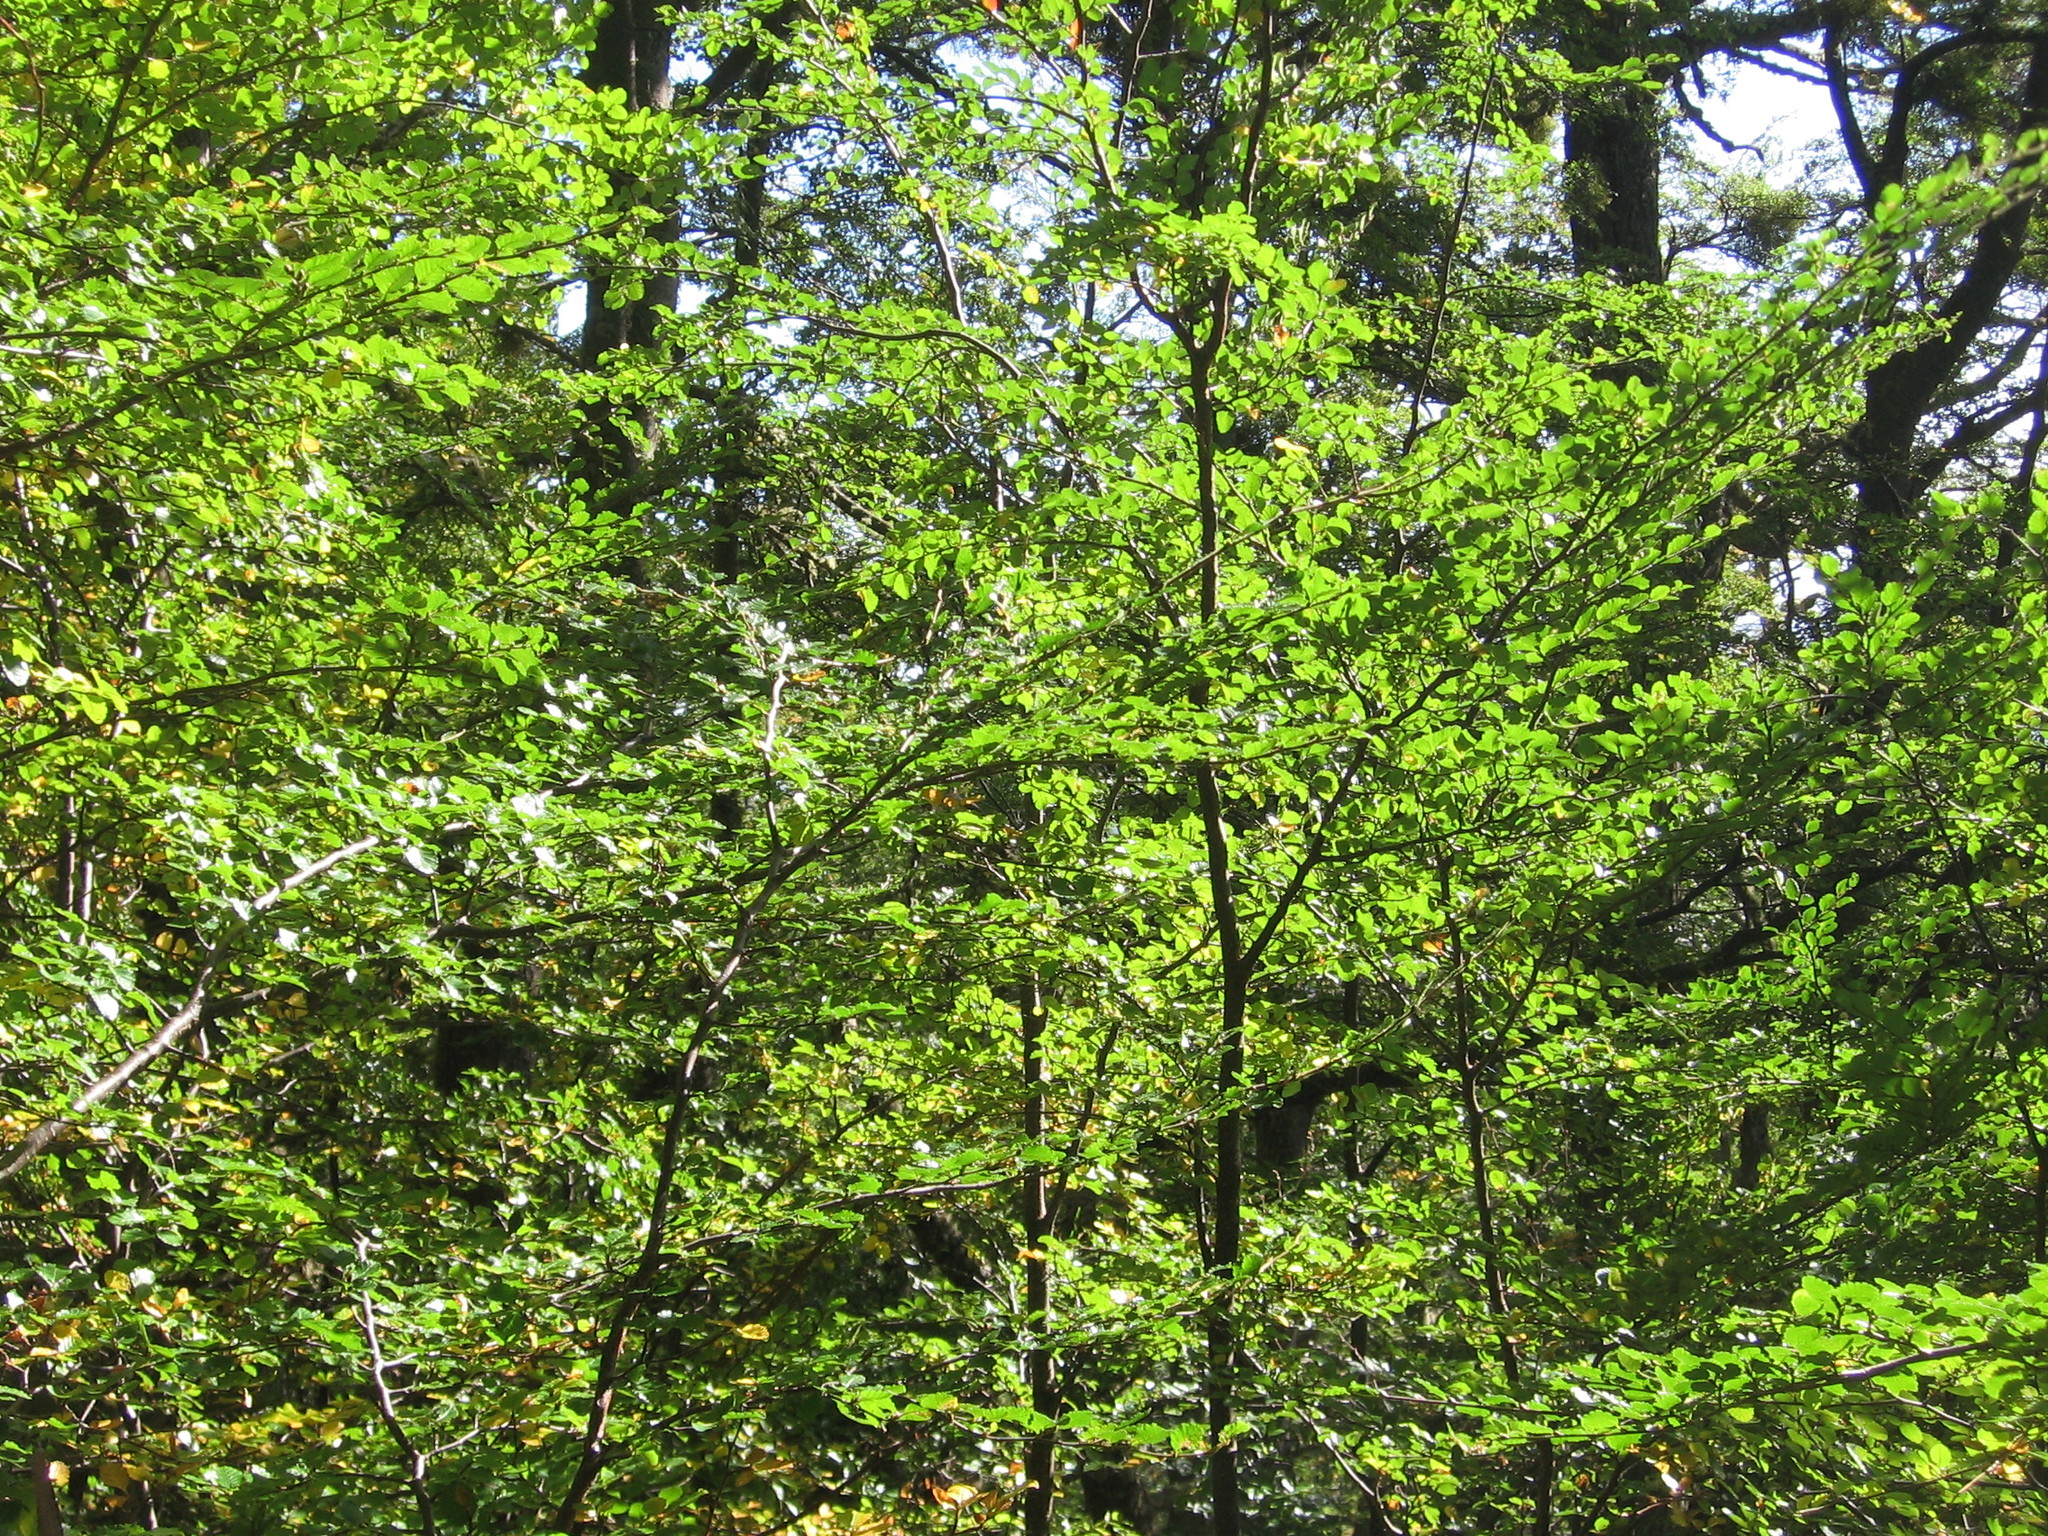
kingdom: Plantae
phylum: Tracheophyta
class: Magnoliopsida
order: Fagales
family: Nothofagaceae
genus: Nothofagus
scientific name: Nothofagus pumilio
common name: Lenga beech
